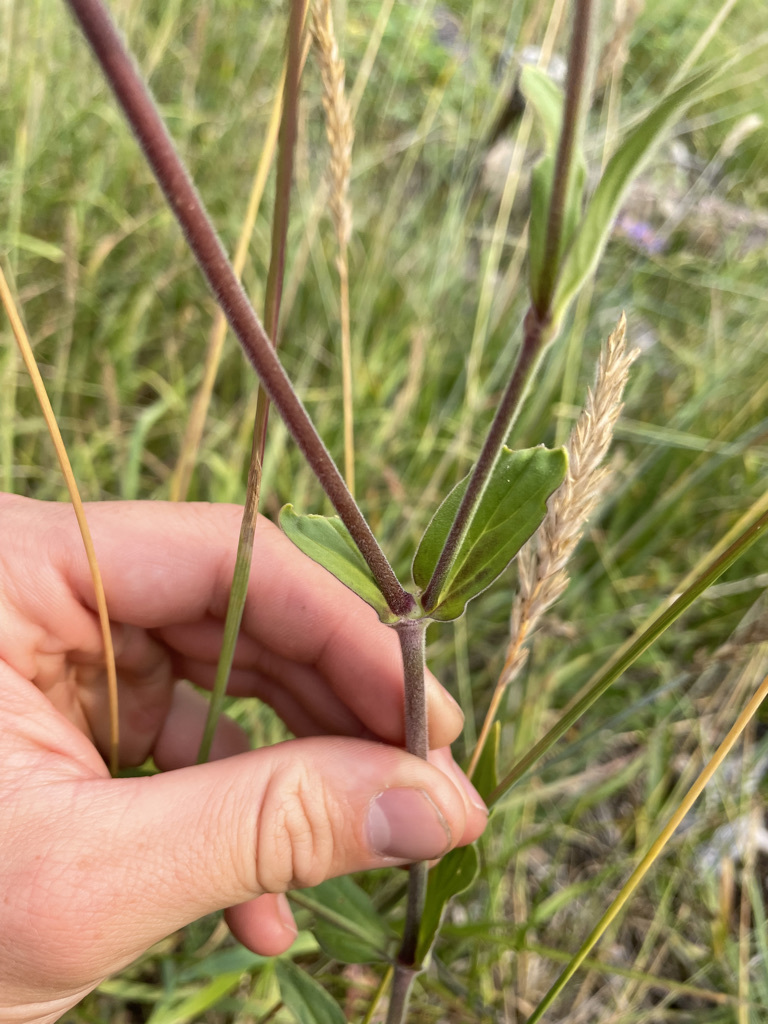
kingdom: Plantae
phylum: Tracheophyta
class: Magnoliopsida
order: Caryophyllales
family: Caryophyllaceae
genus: Silene
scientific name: Silene latifolia
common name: White campion
